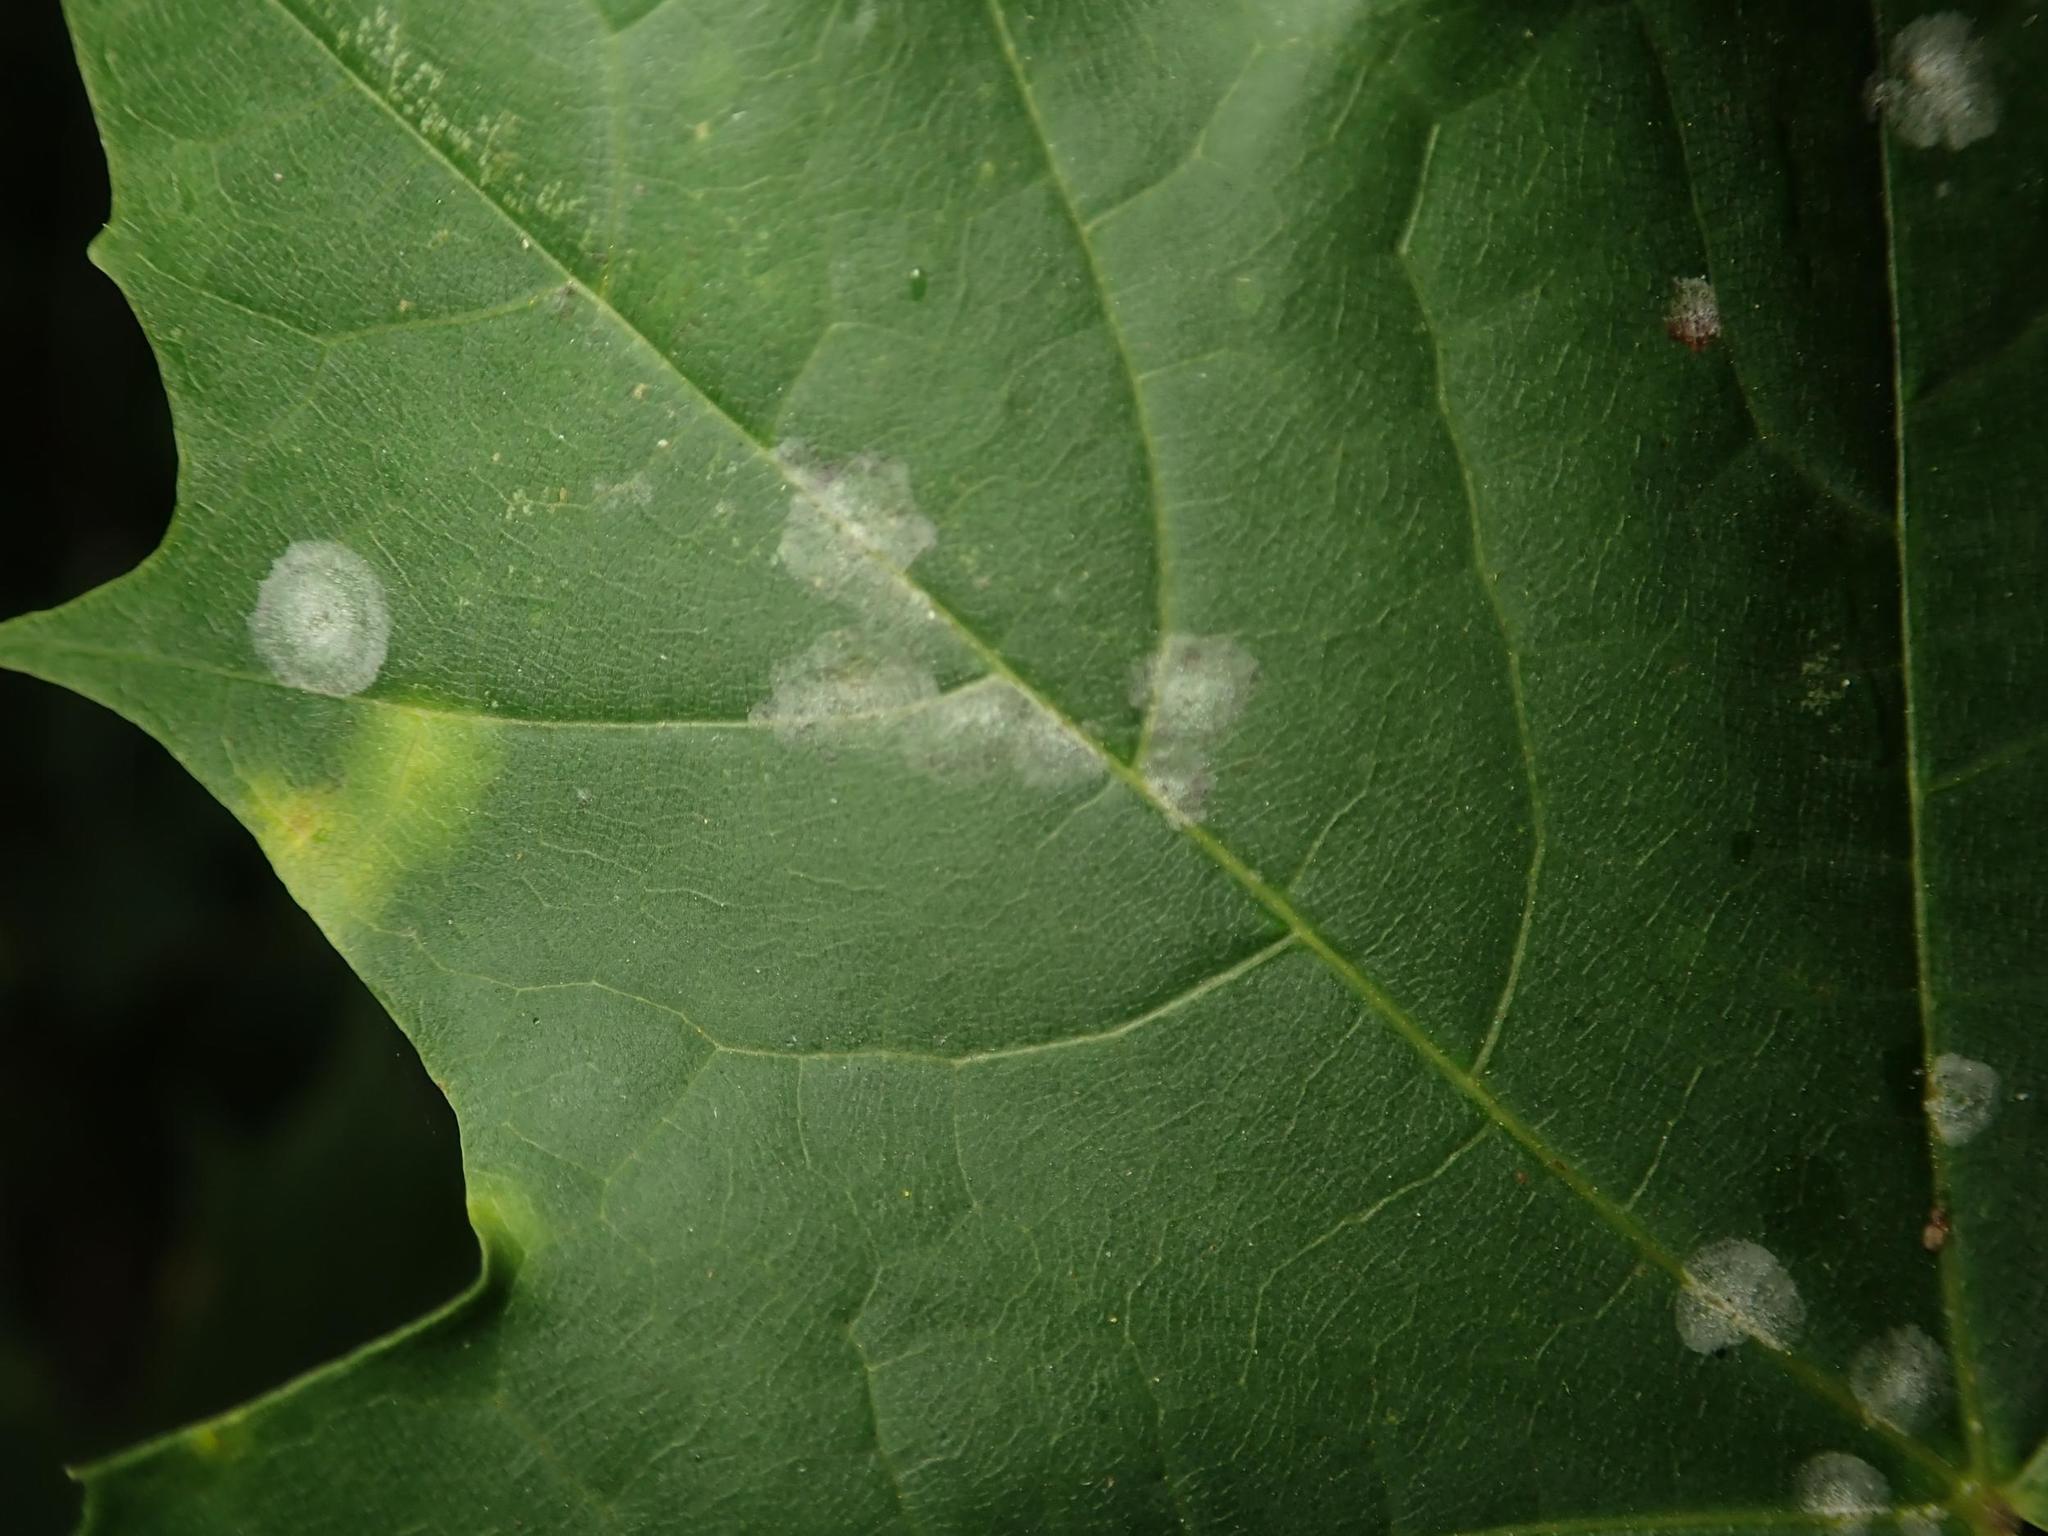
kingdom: Fungi
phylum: Ascomycota
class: Leotiomycetes
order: Helotiales
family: Erysiphaceae
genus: Sawadaea
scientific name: Sawadaea tulasnei
